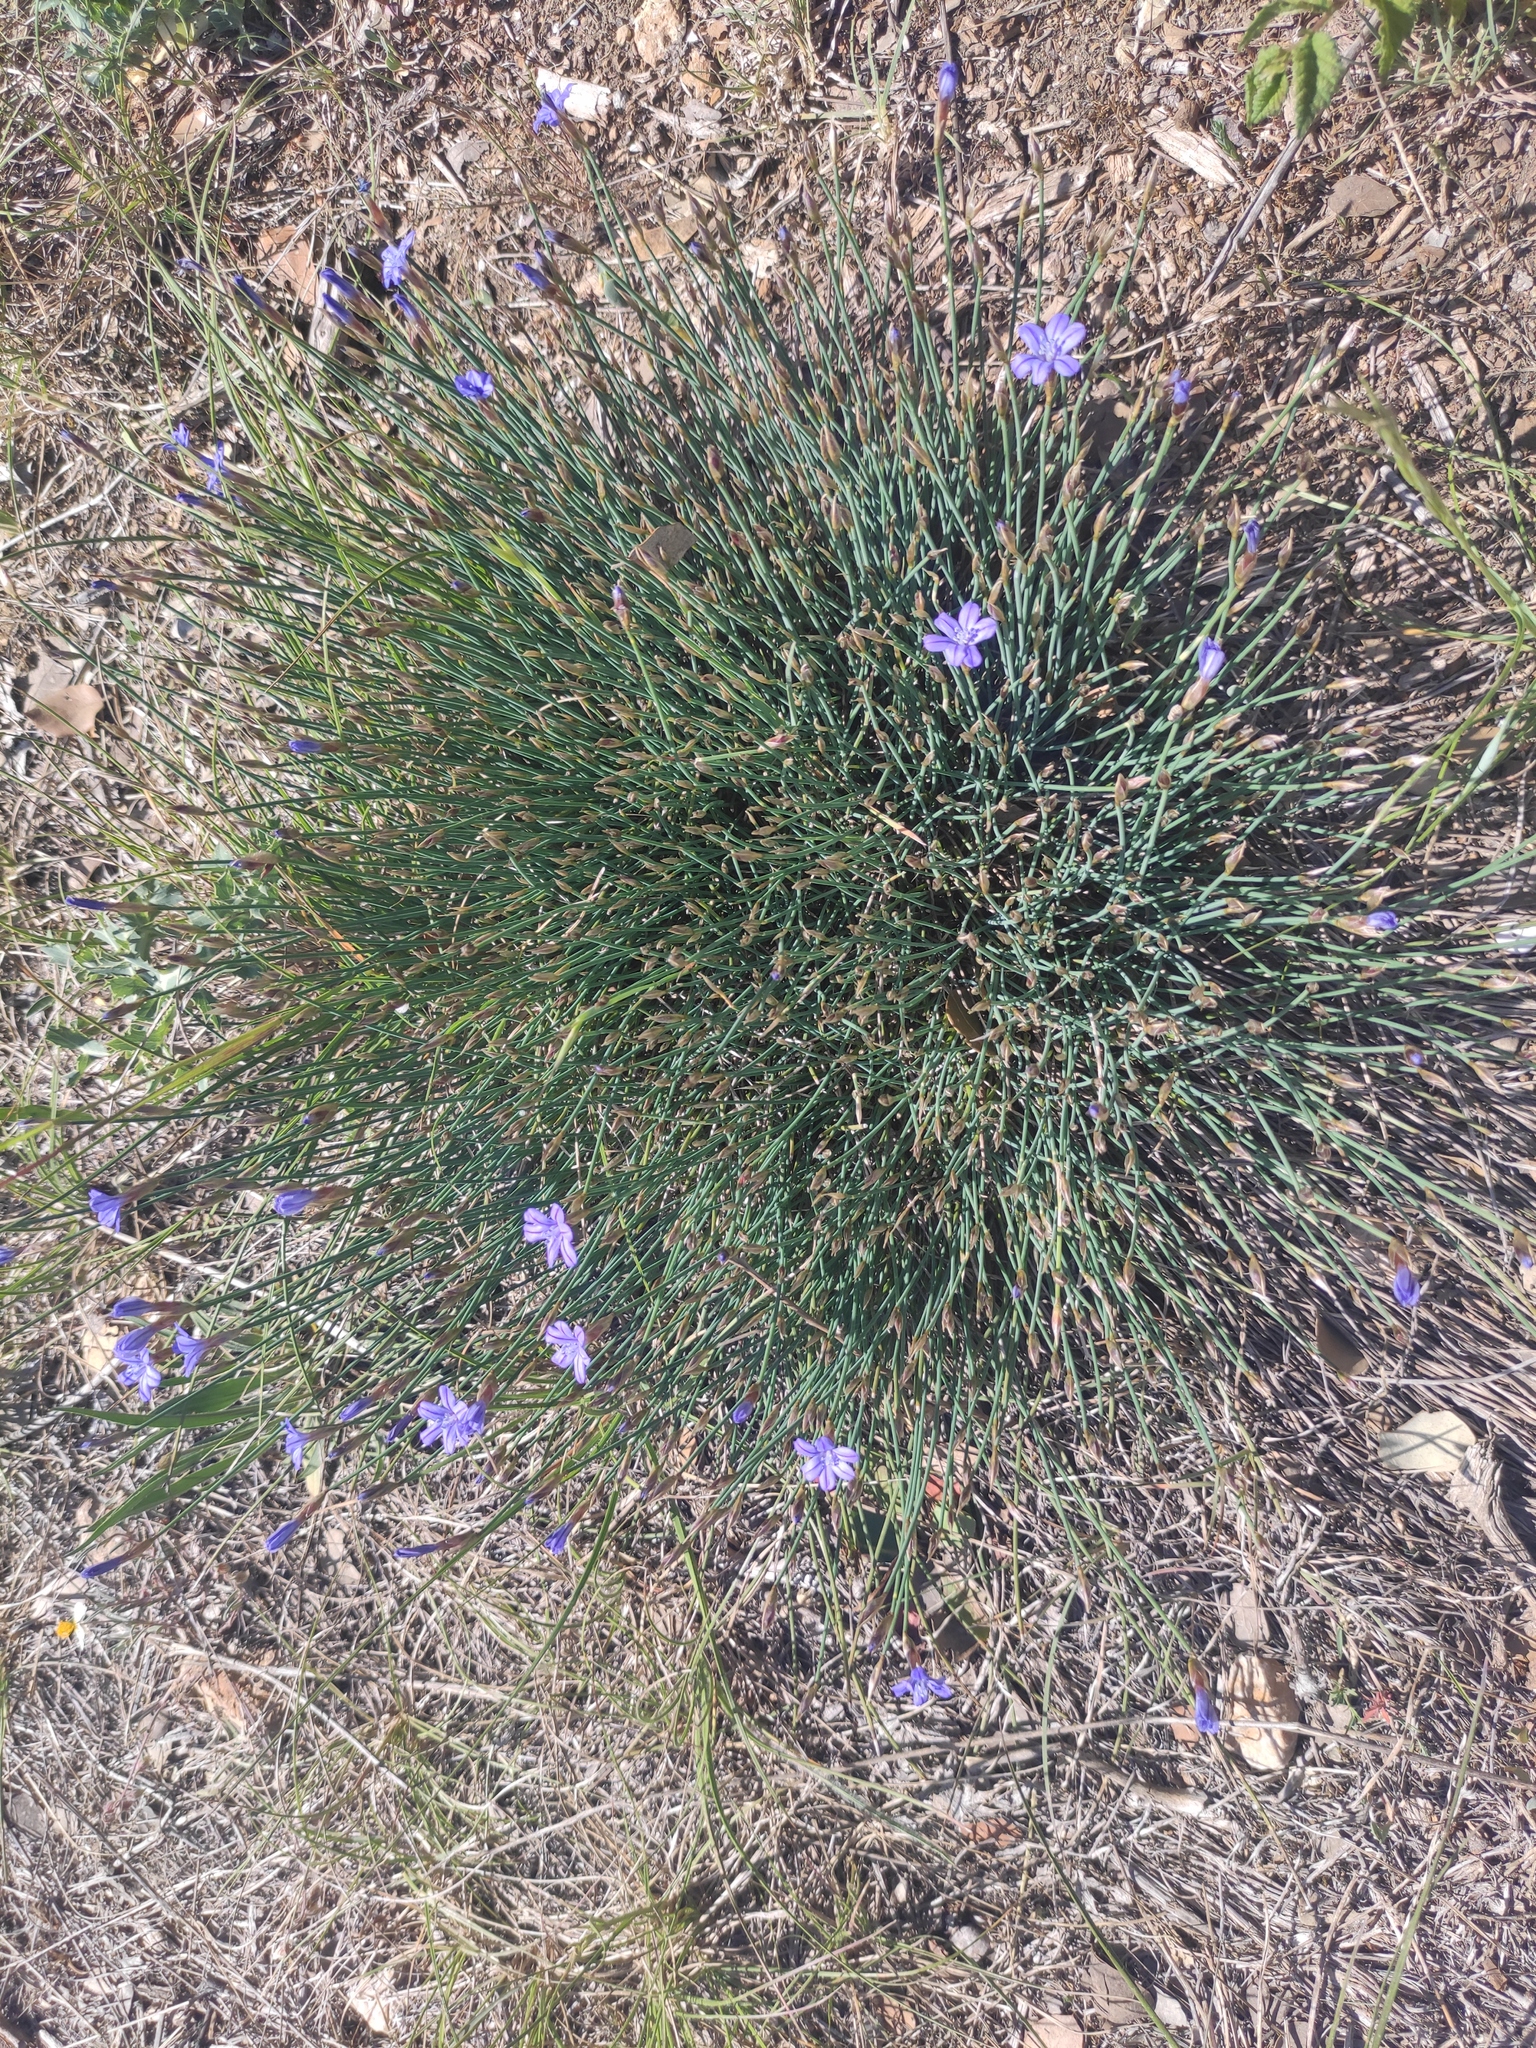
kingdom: Plantae
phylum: Tracheophyta
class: Liliopsida
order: Asparagales
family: Asparagaceae
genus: Aphyllanthes
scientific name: Aphyllanthes monspeliensis
